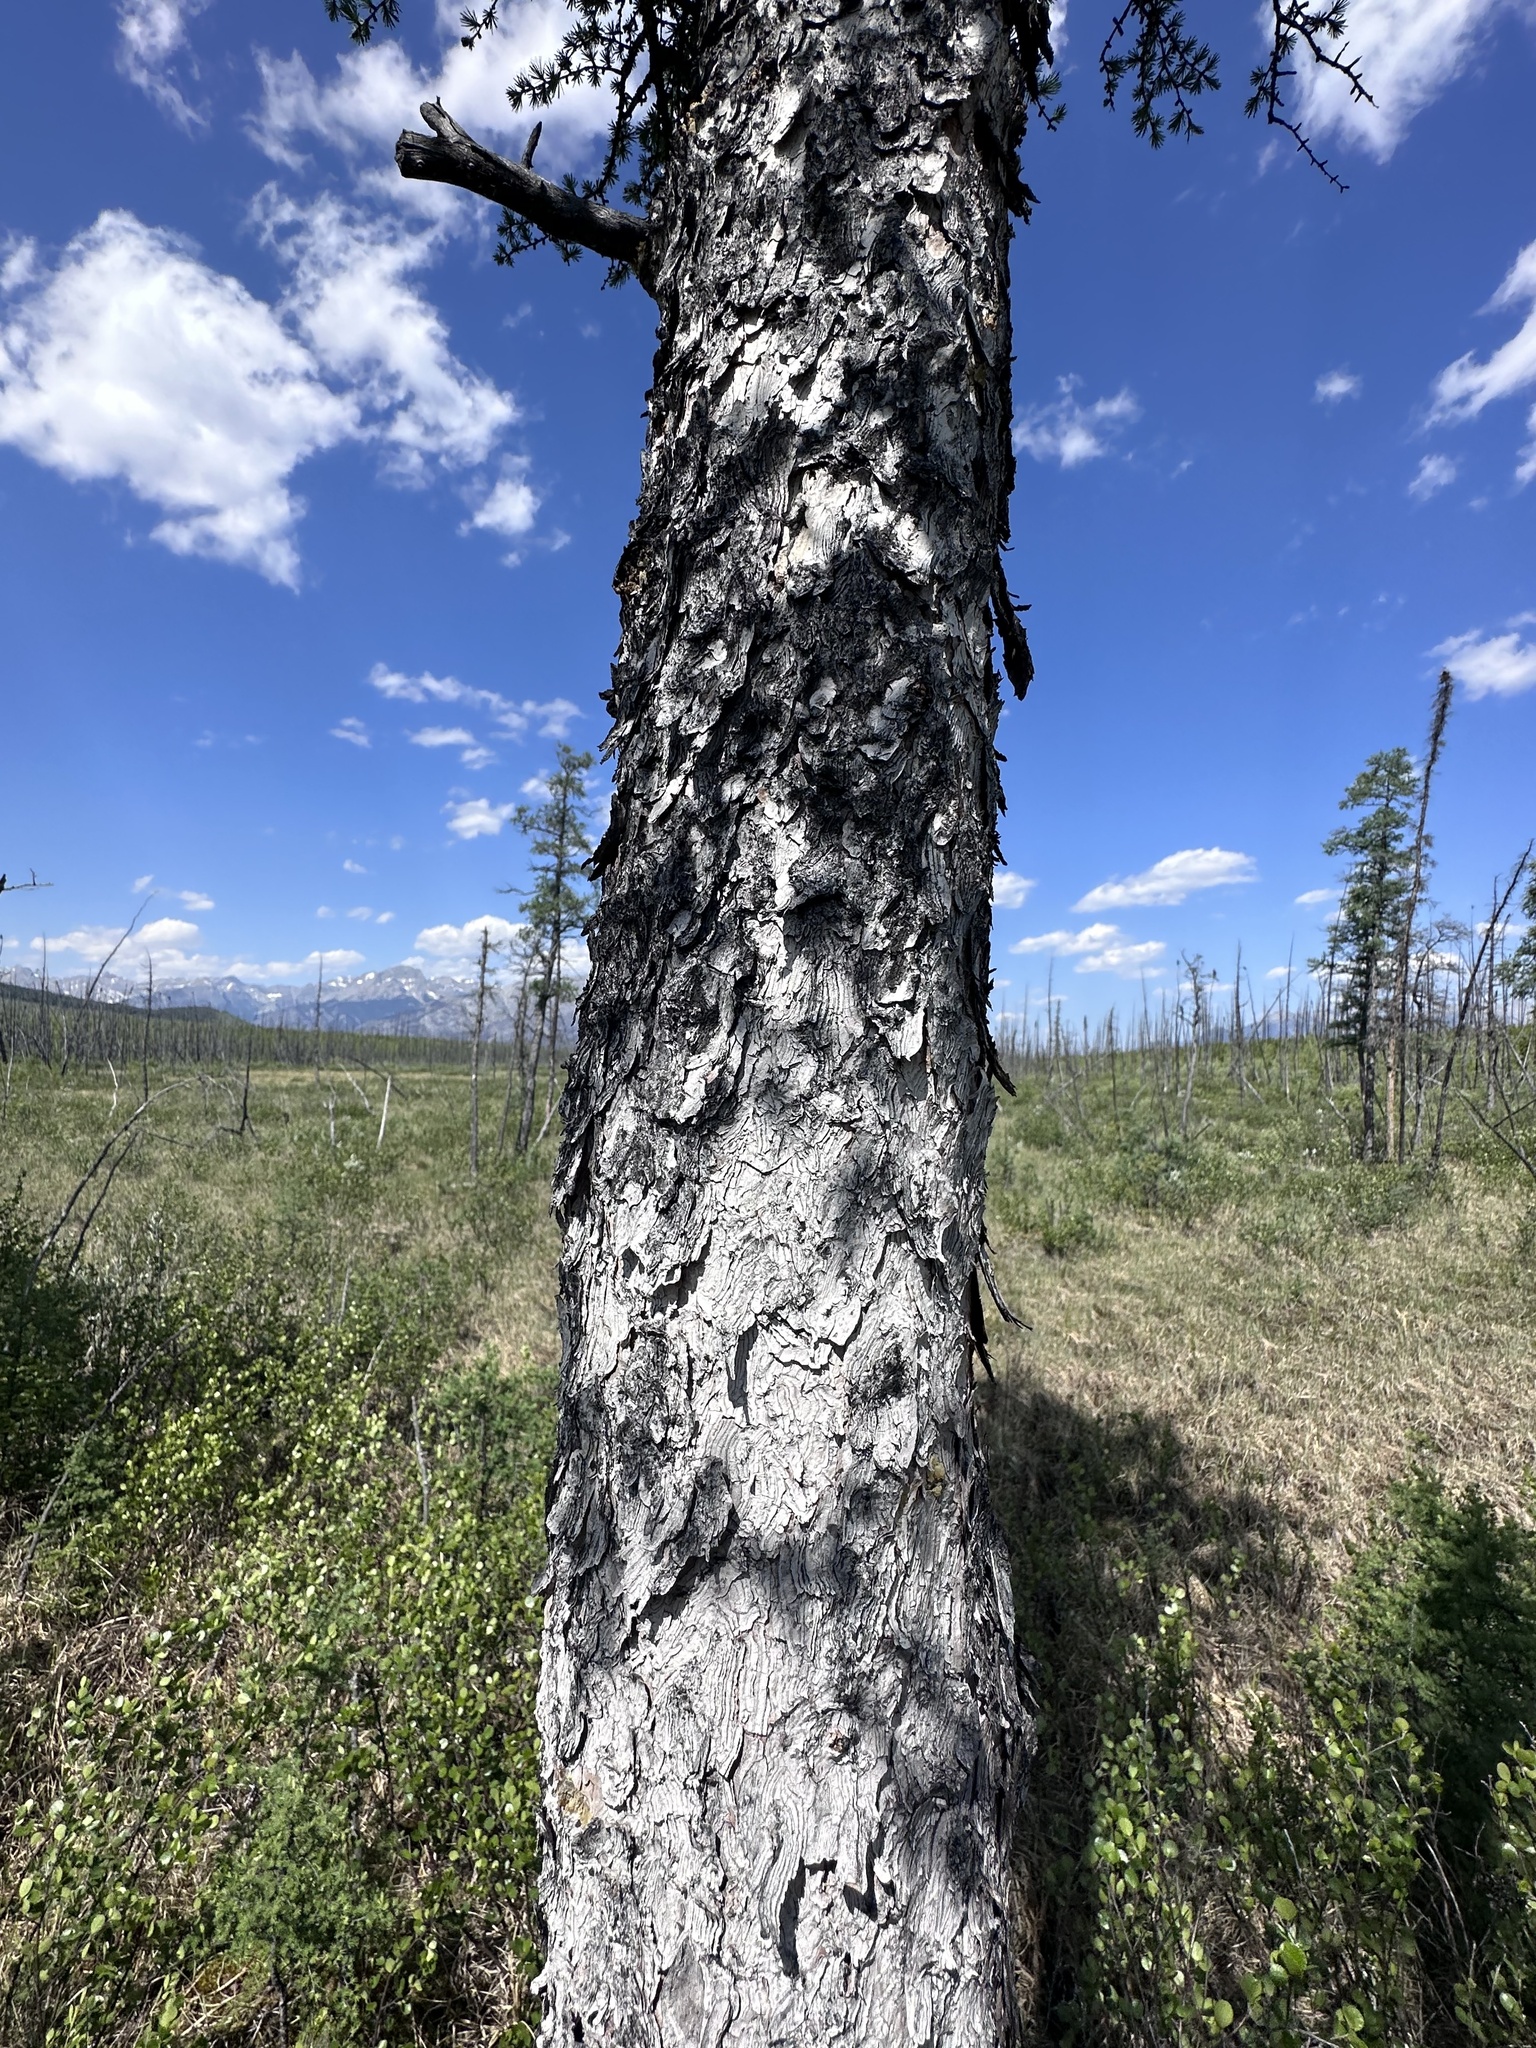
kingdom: Plantae
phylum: Tracheophyta
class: Pinopsida
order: Pinales
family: Pinaceae
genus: Larix
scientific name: Larix laricina
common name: American larch
